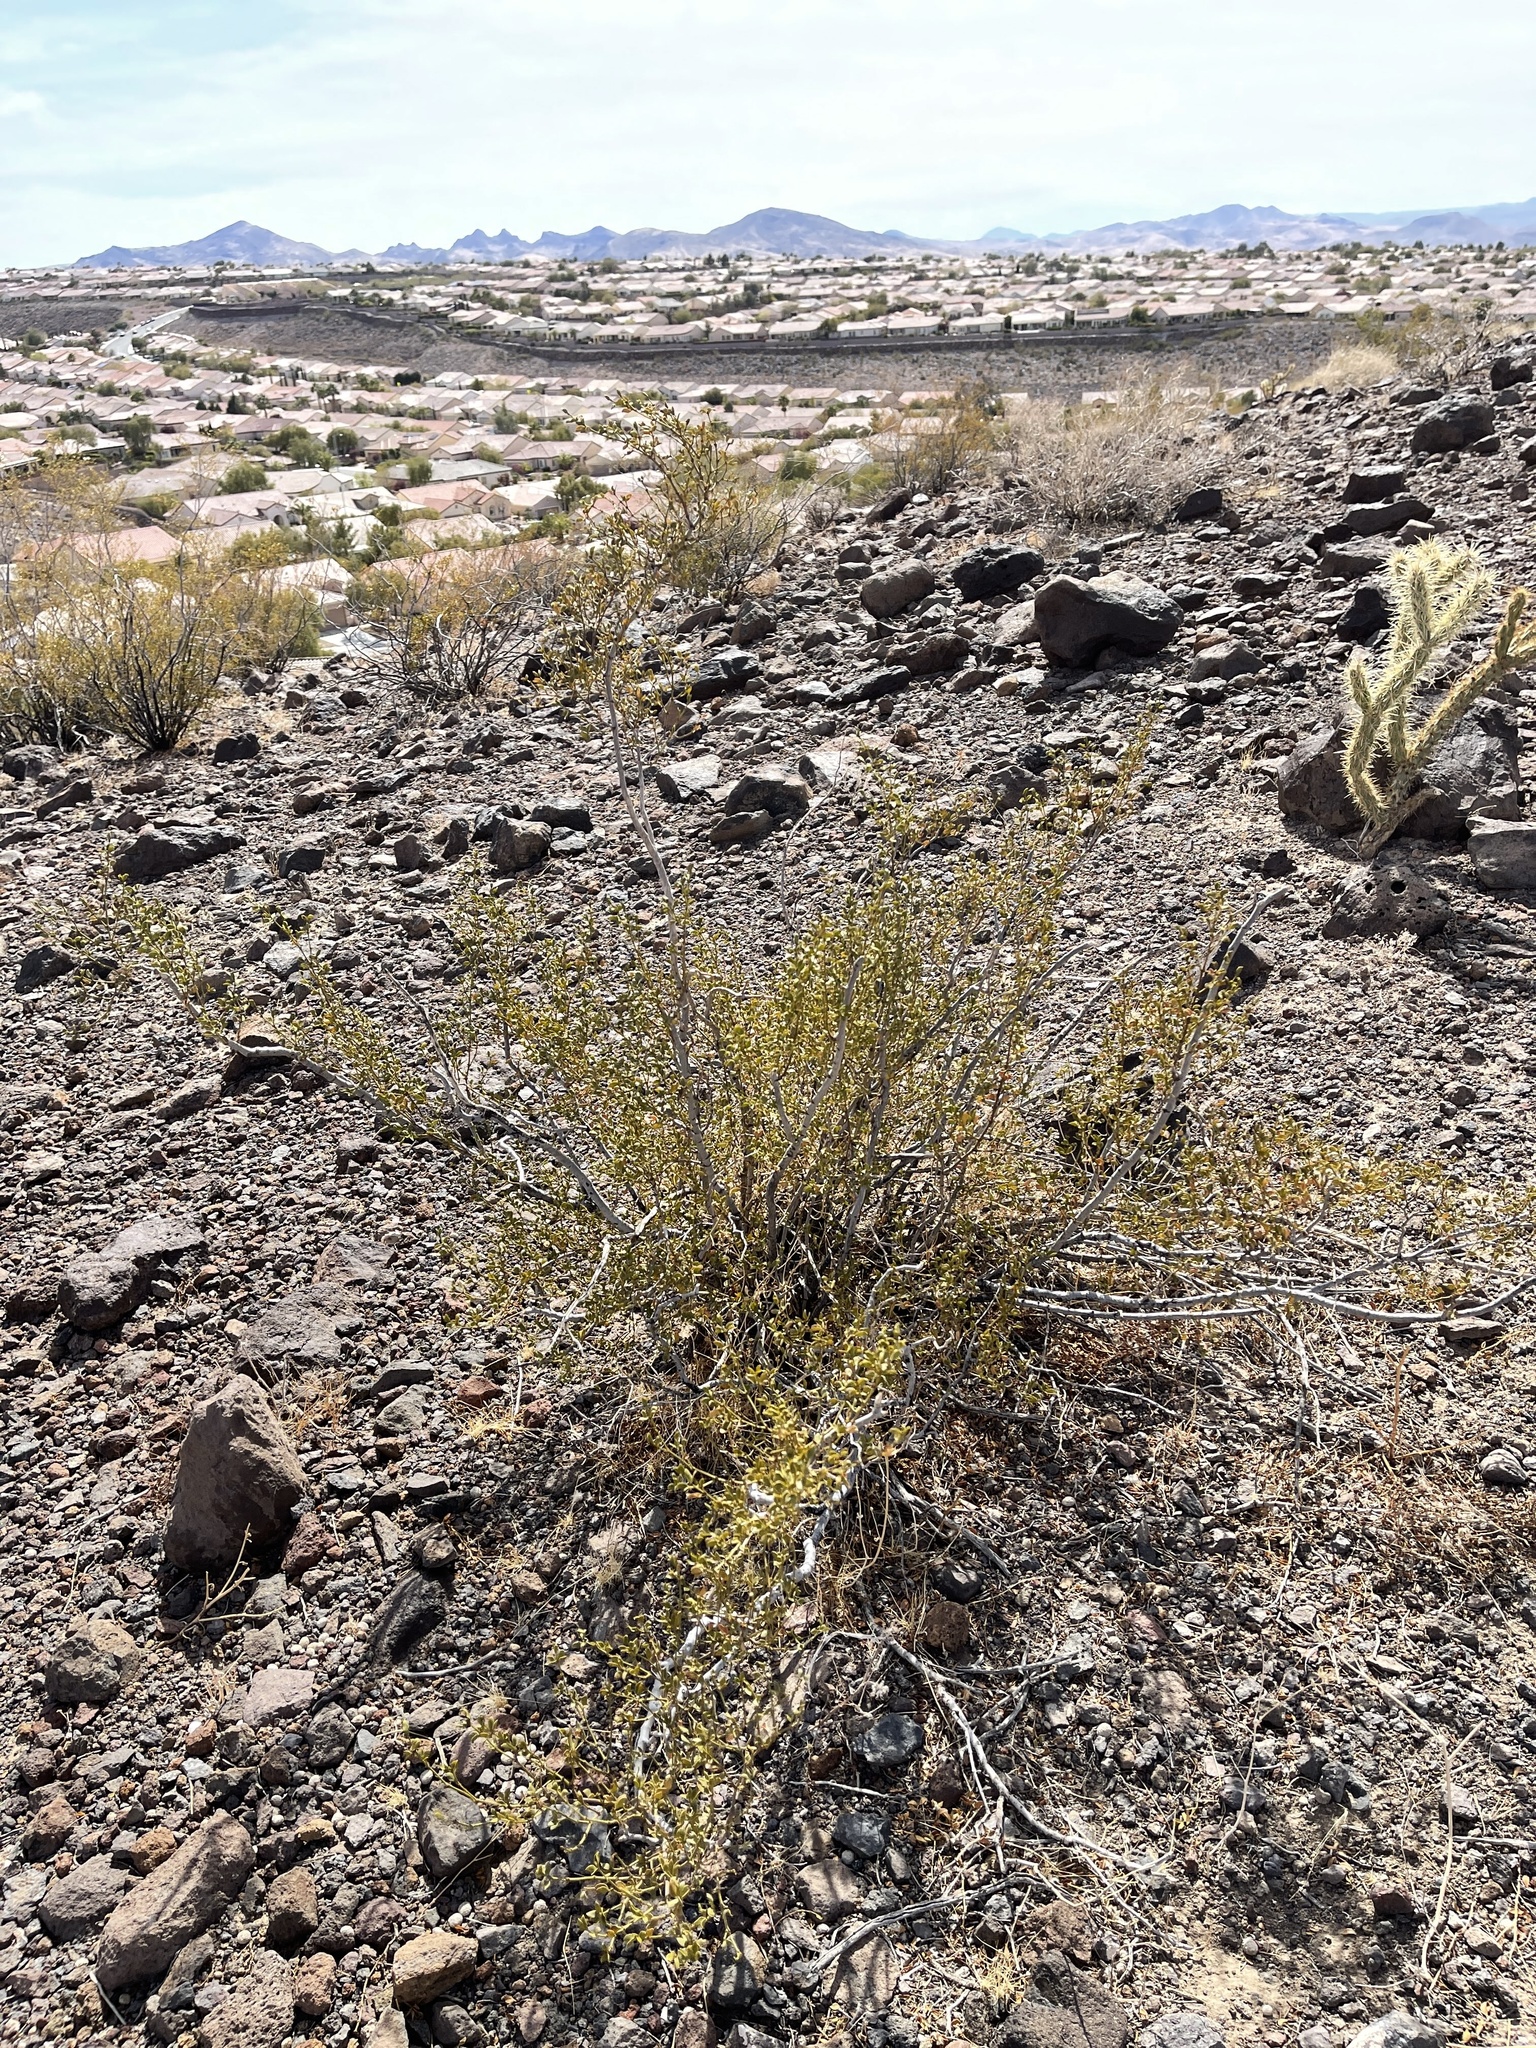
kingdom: Plantae
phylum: Tracheophyta
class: Magnoliopsida
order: Zygophyllales
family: Zygophyllaceae
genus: Larrea
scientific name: Larrea tridentata
